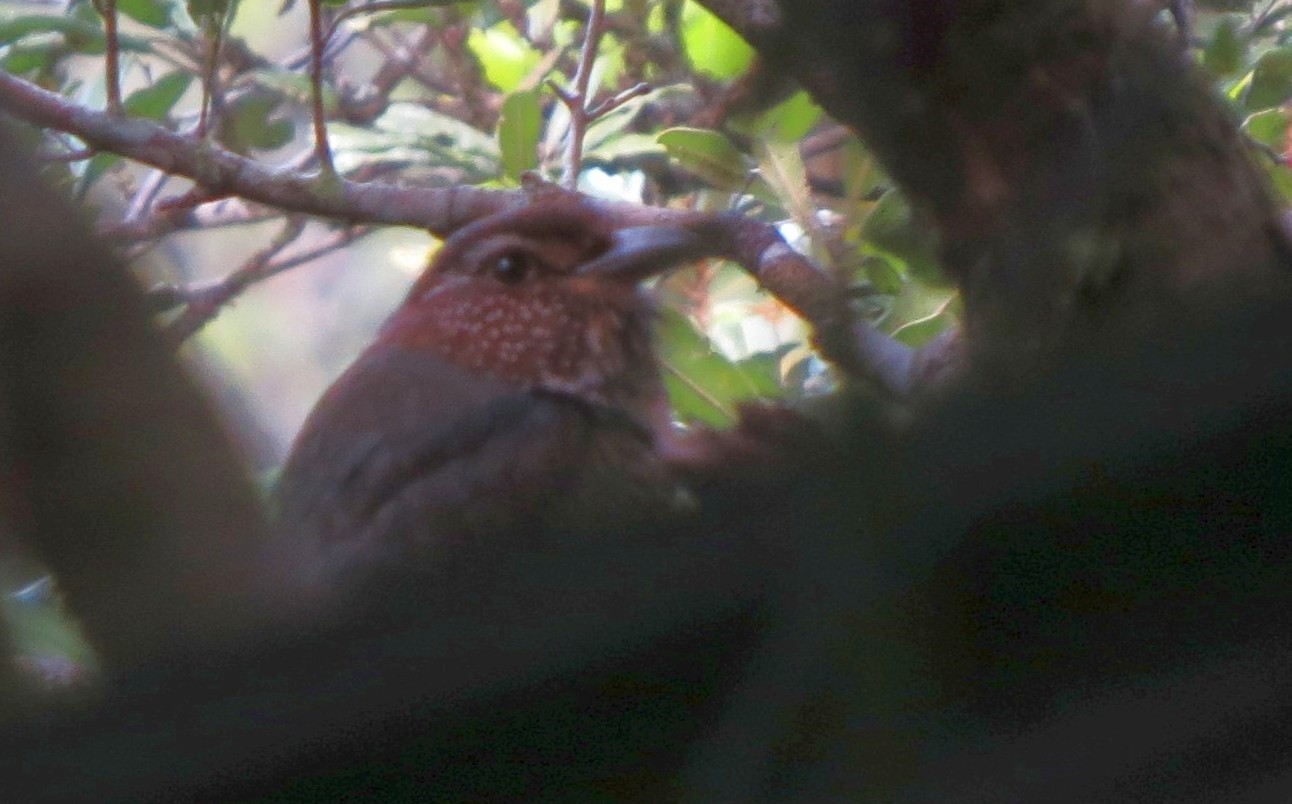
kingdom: Animalia
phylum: Chordata
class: Aves
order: Coraciiformes
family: Brachypteraciidae
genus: Brachypteracias
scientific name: Brachypteracias leptosomus
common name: Short-legged ground-roller
